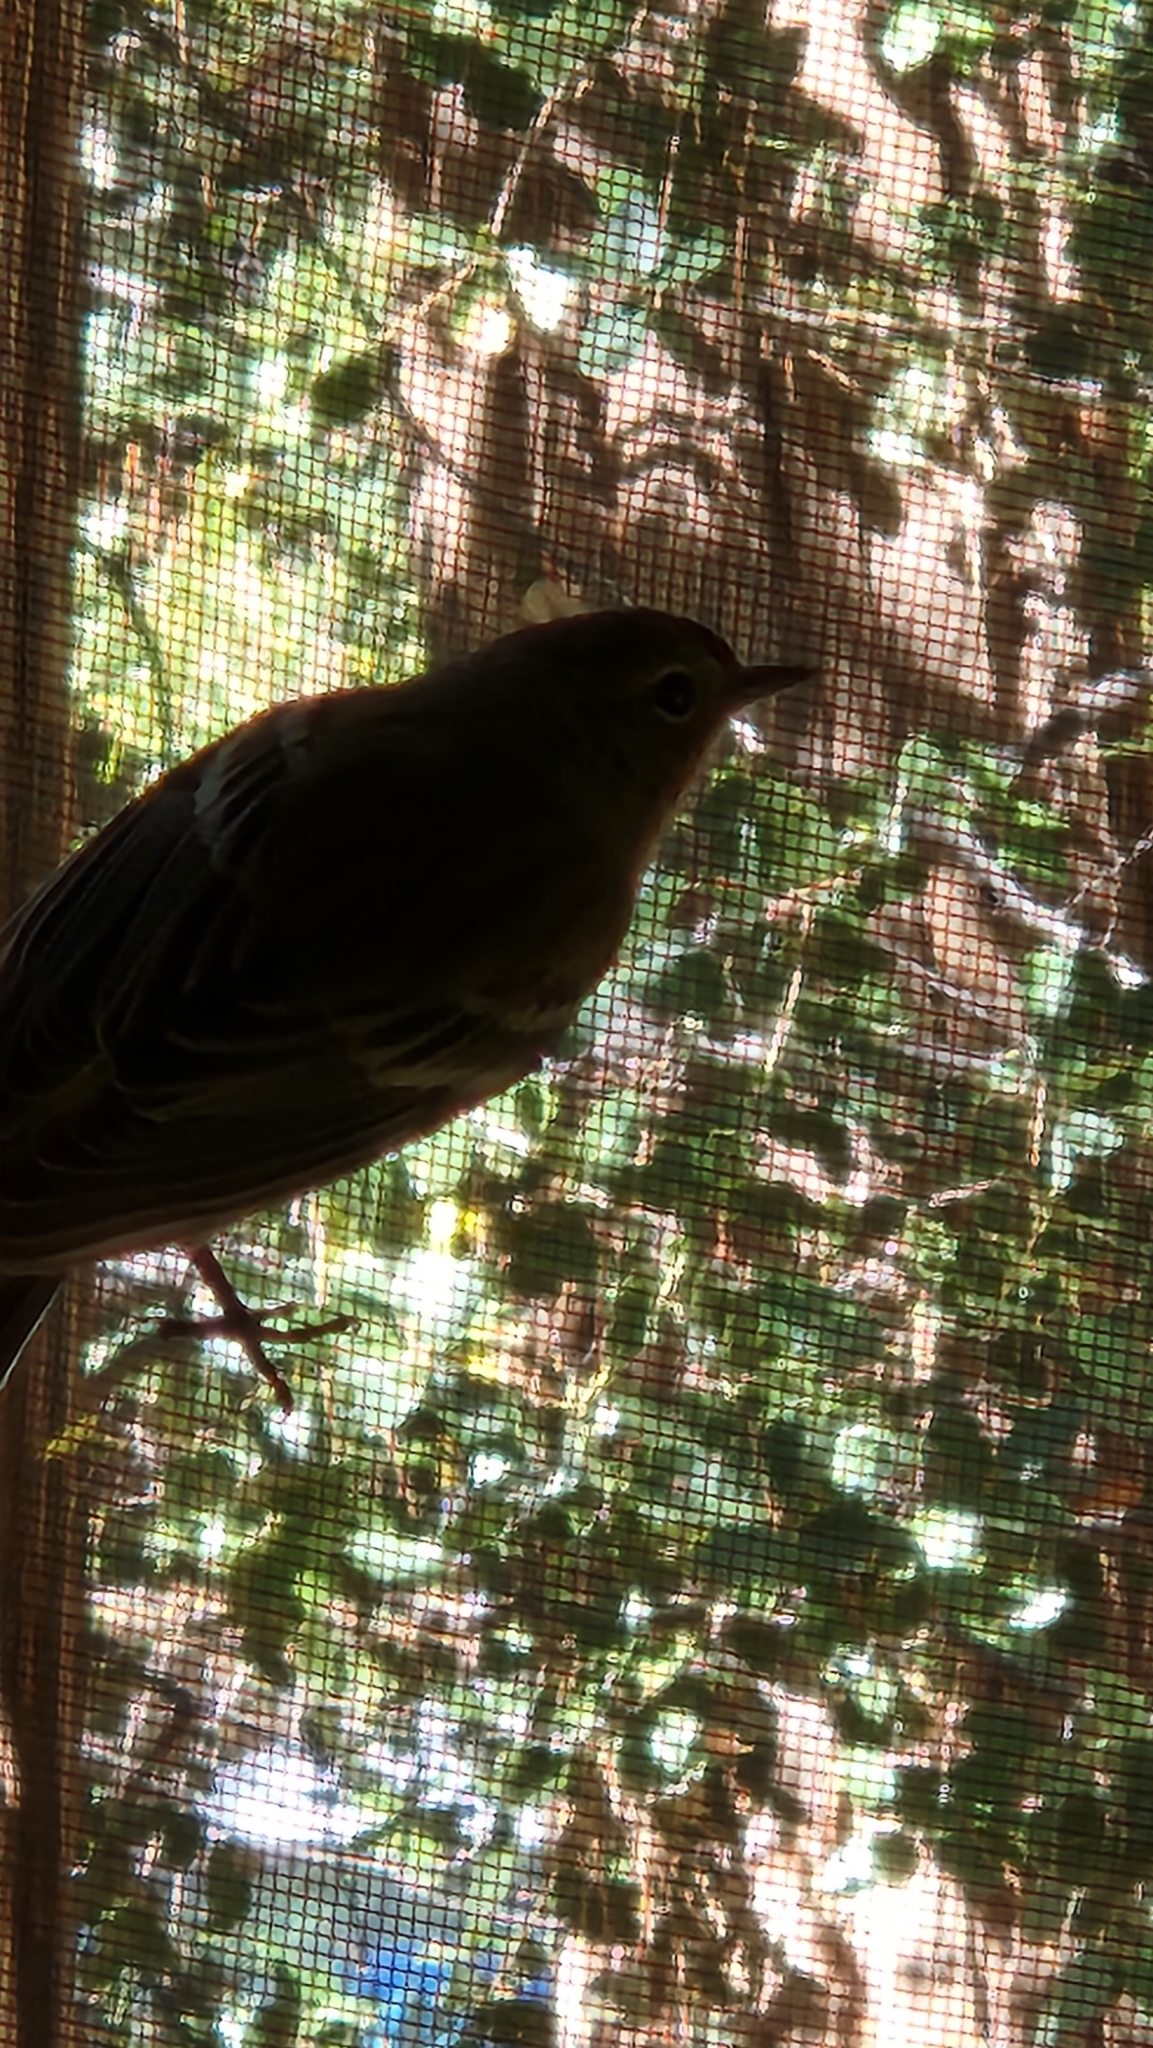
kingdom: Animalia
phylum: Chordata
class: Aves
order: Passeriformes
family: Parulidae
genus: Setophaga
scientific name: Setophaga coronata
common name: Myrtle warbler
